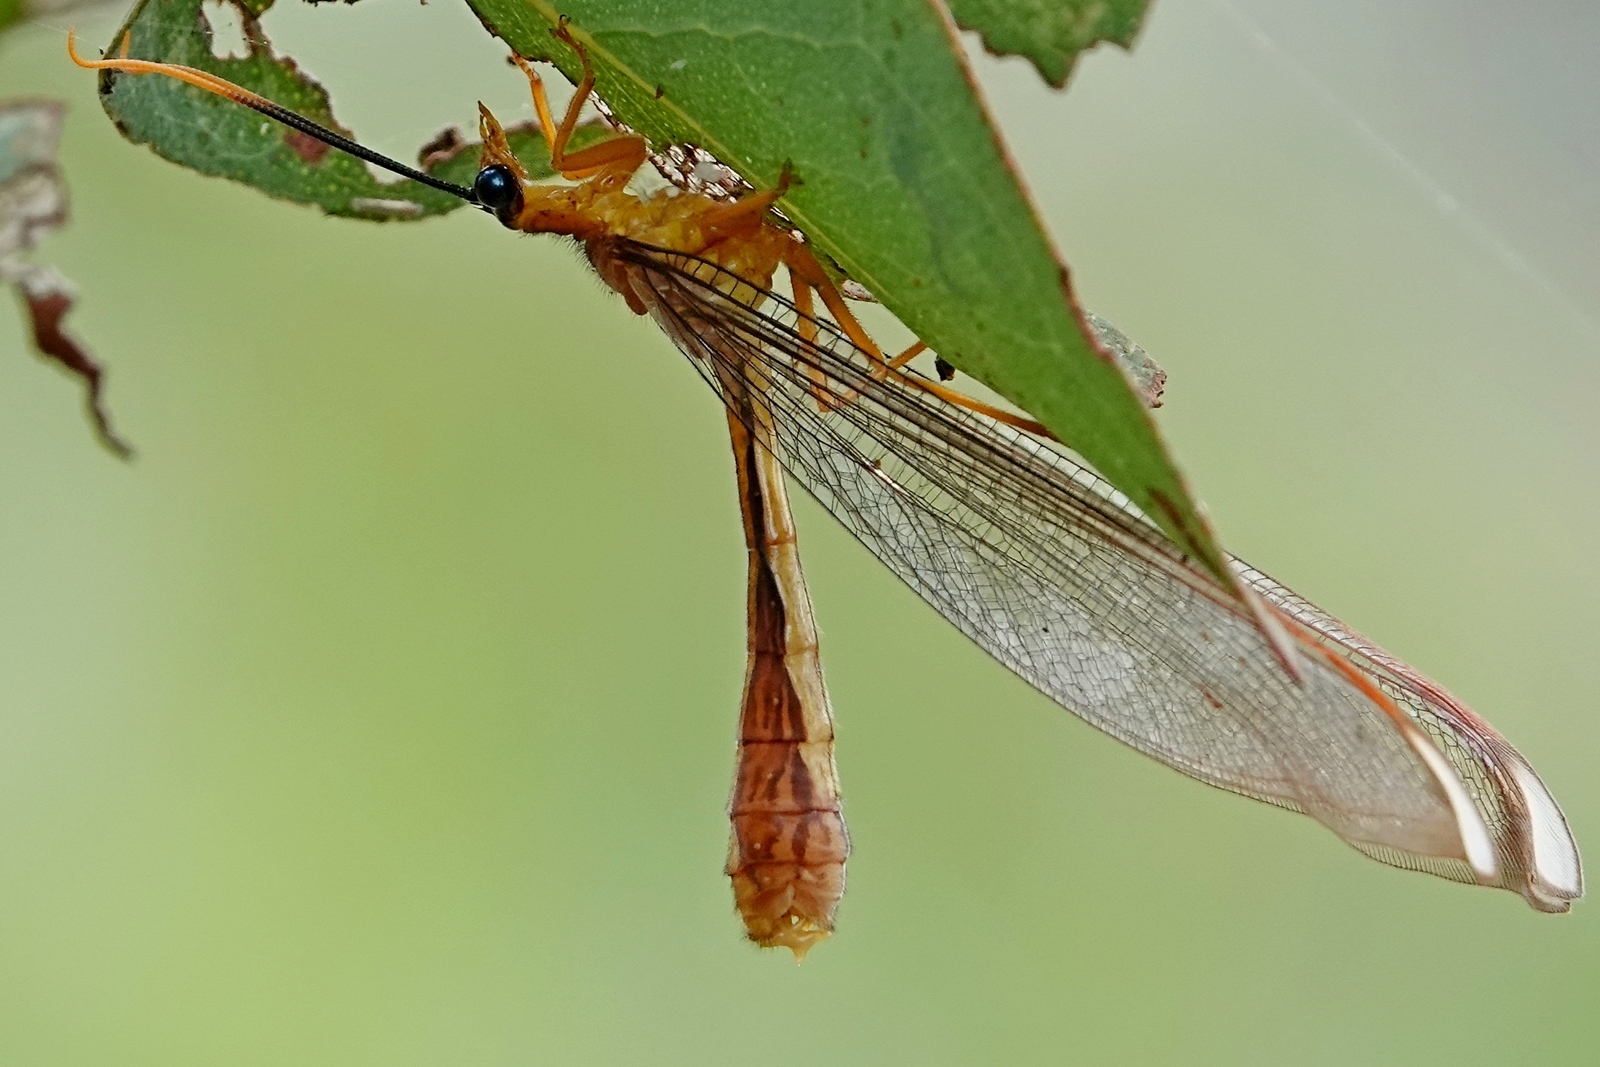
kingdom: Animalia
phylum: Arthropoda
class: Insecta
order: Neuroptera
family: Nymphidae
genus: Nymphes
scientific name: Nymphes myrmeleonoides
